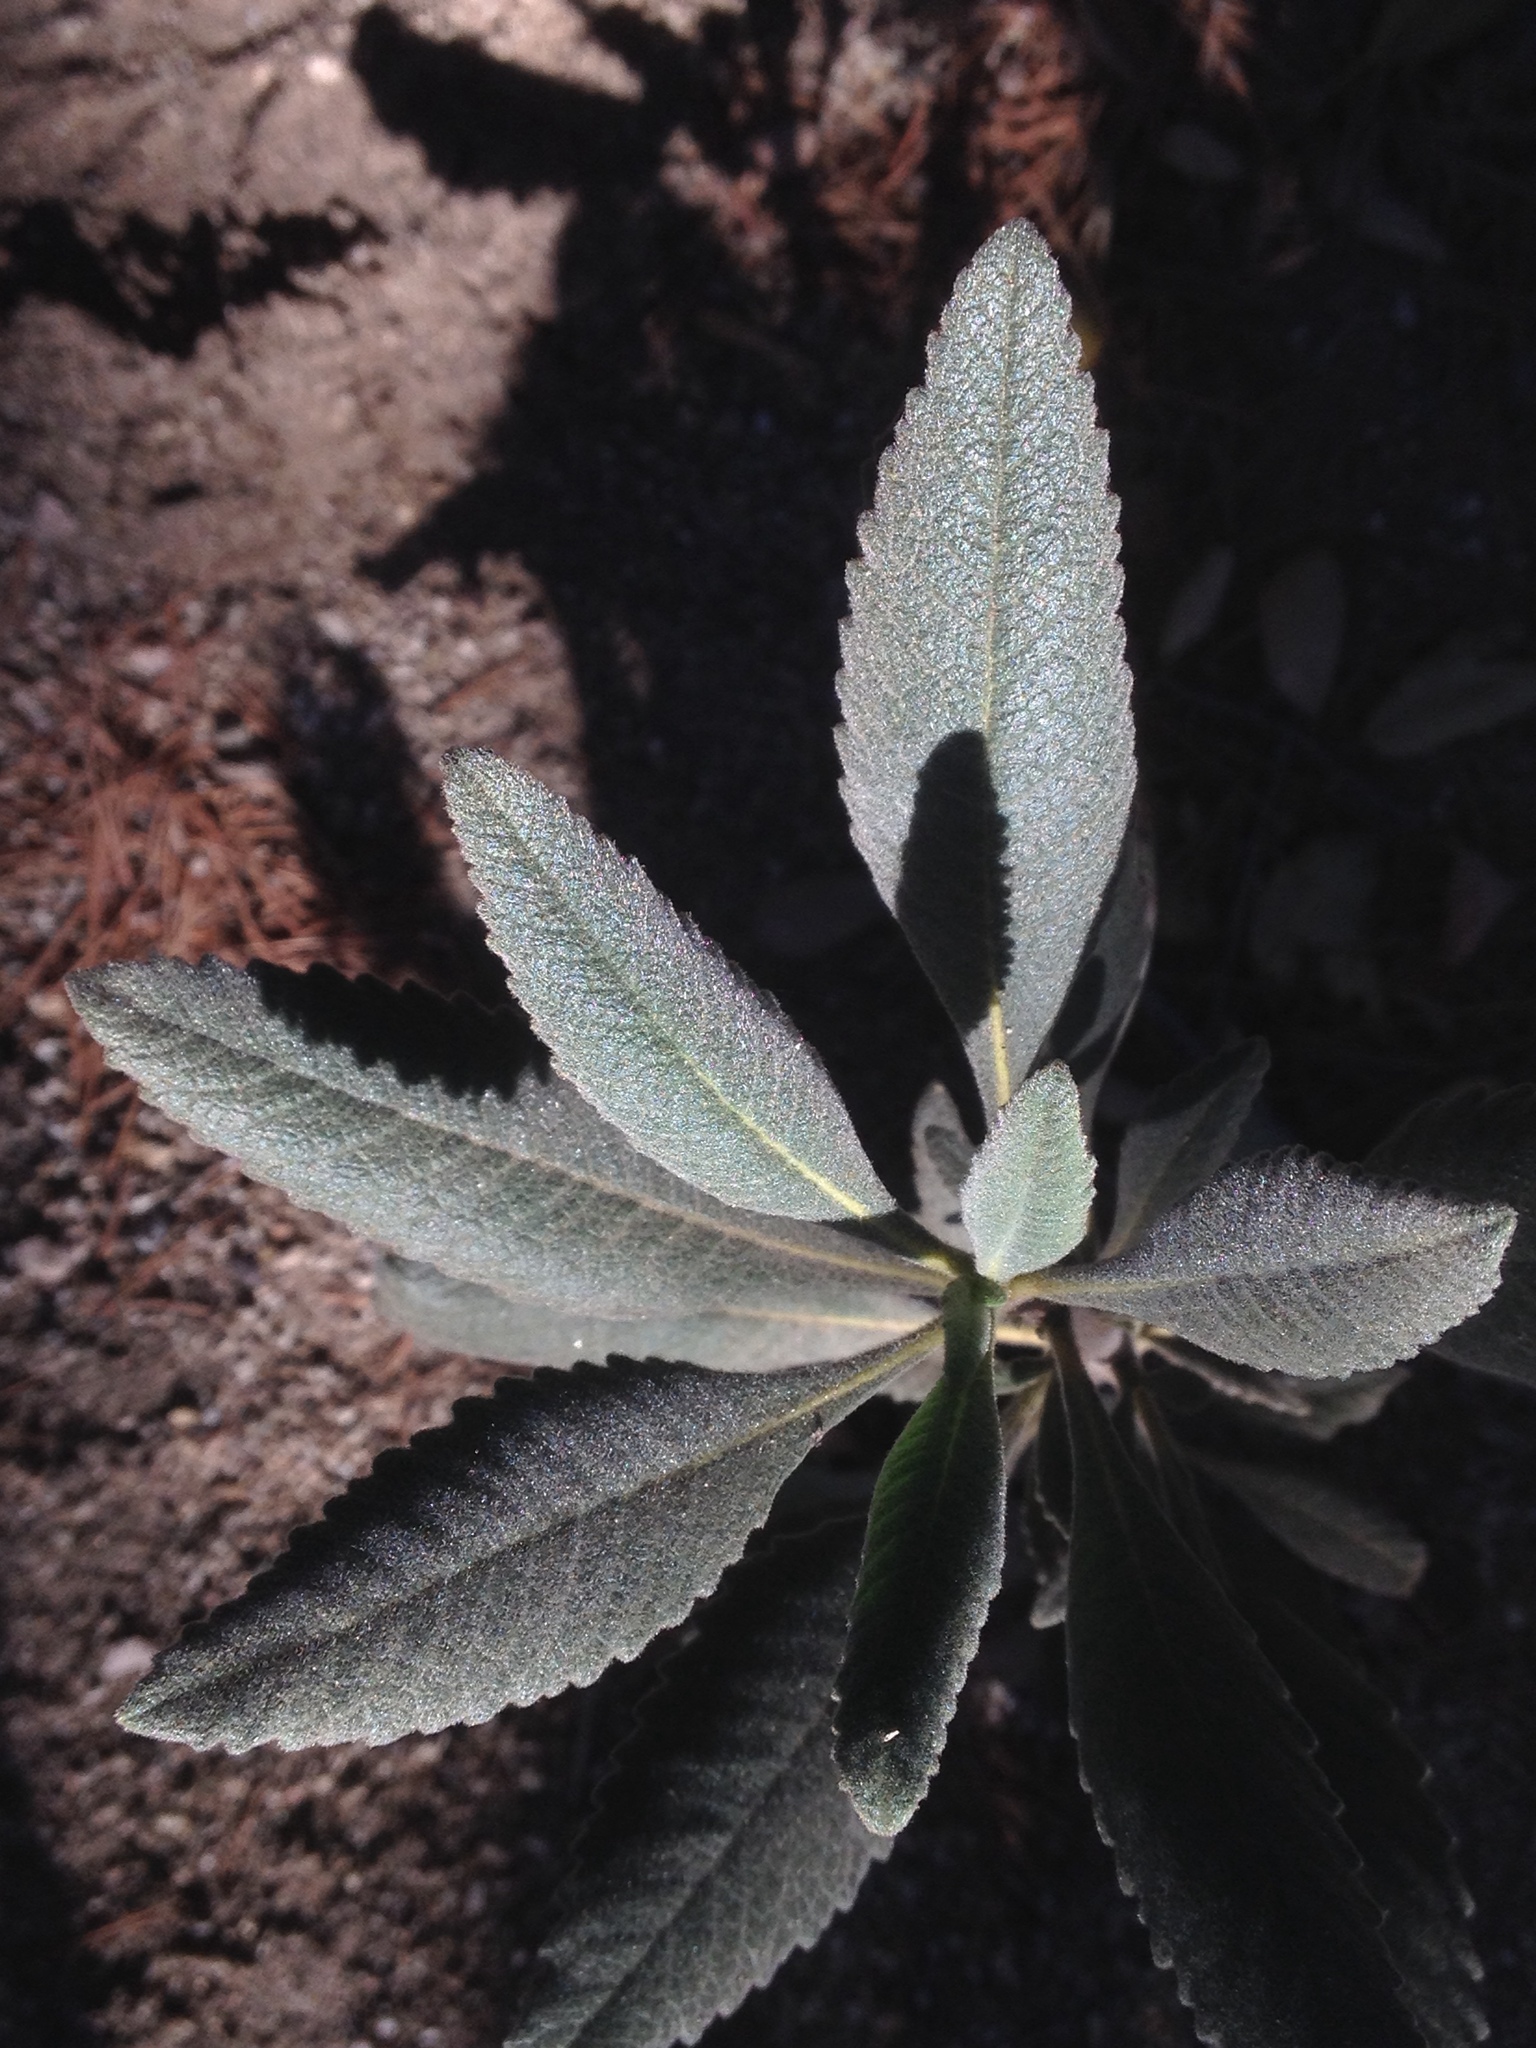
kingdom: Plantae
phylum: Tracheophyta
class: Magnoliopsida
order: Boraginales
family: Namaceae
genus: Eriodictyon
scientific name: Eriodictyon crassifolium
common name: Thick-leaf yerba-santa
